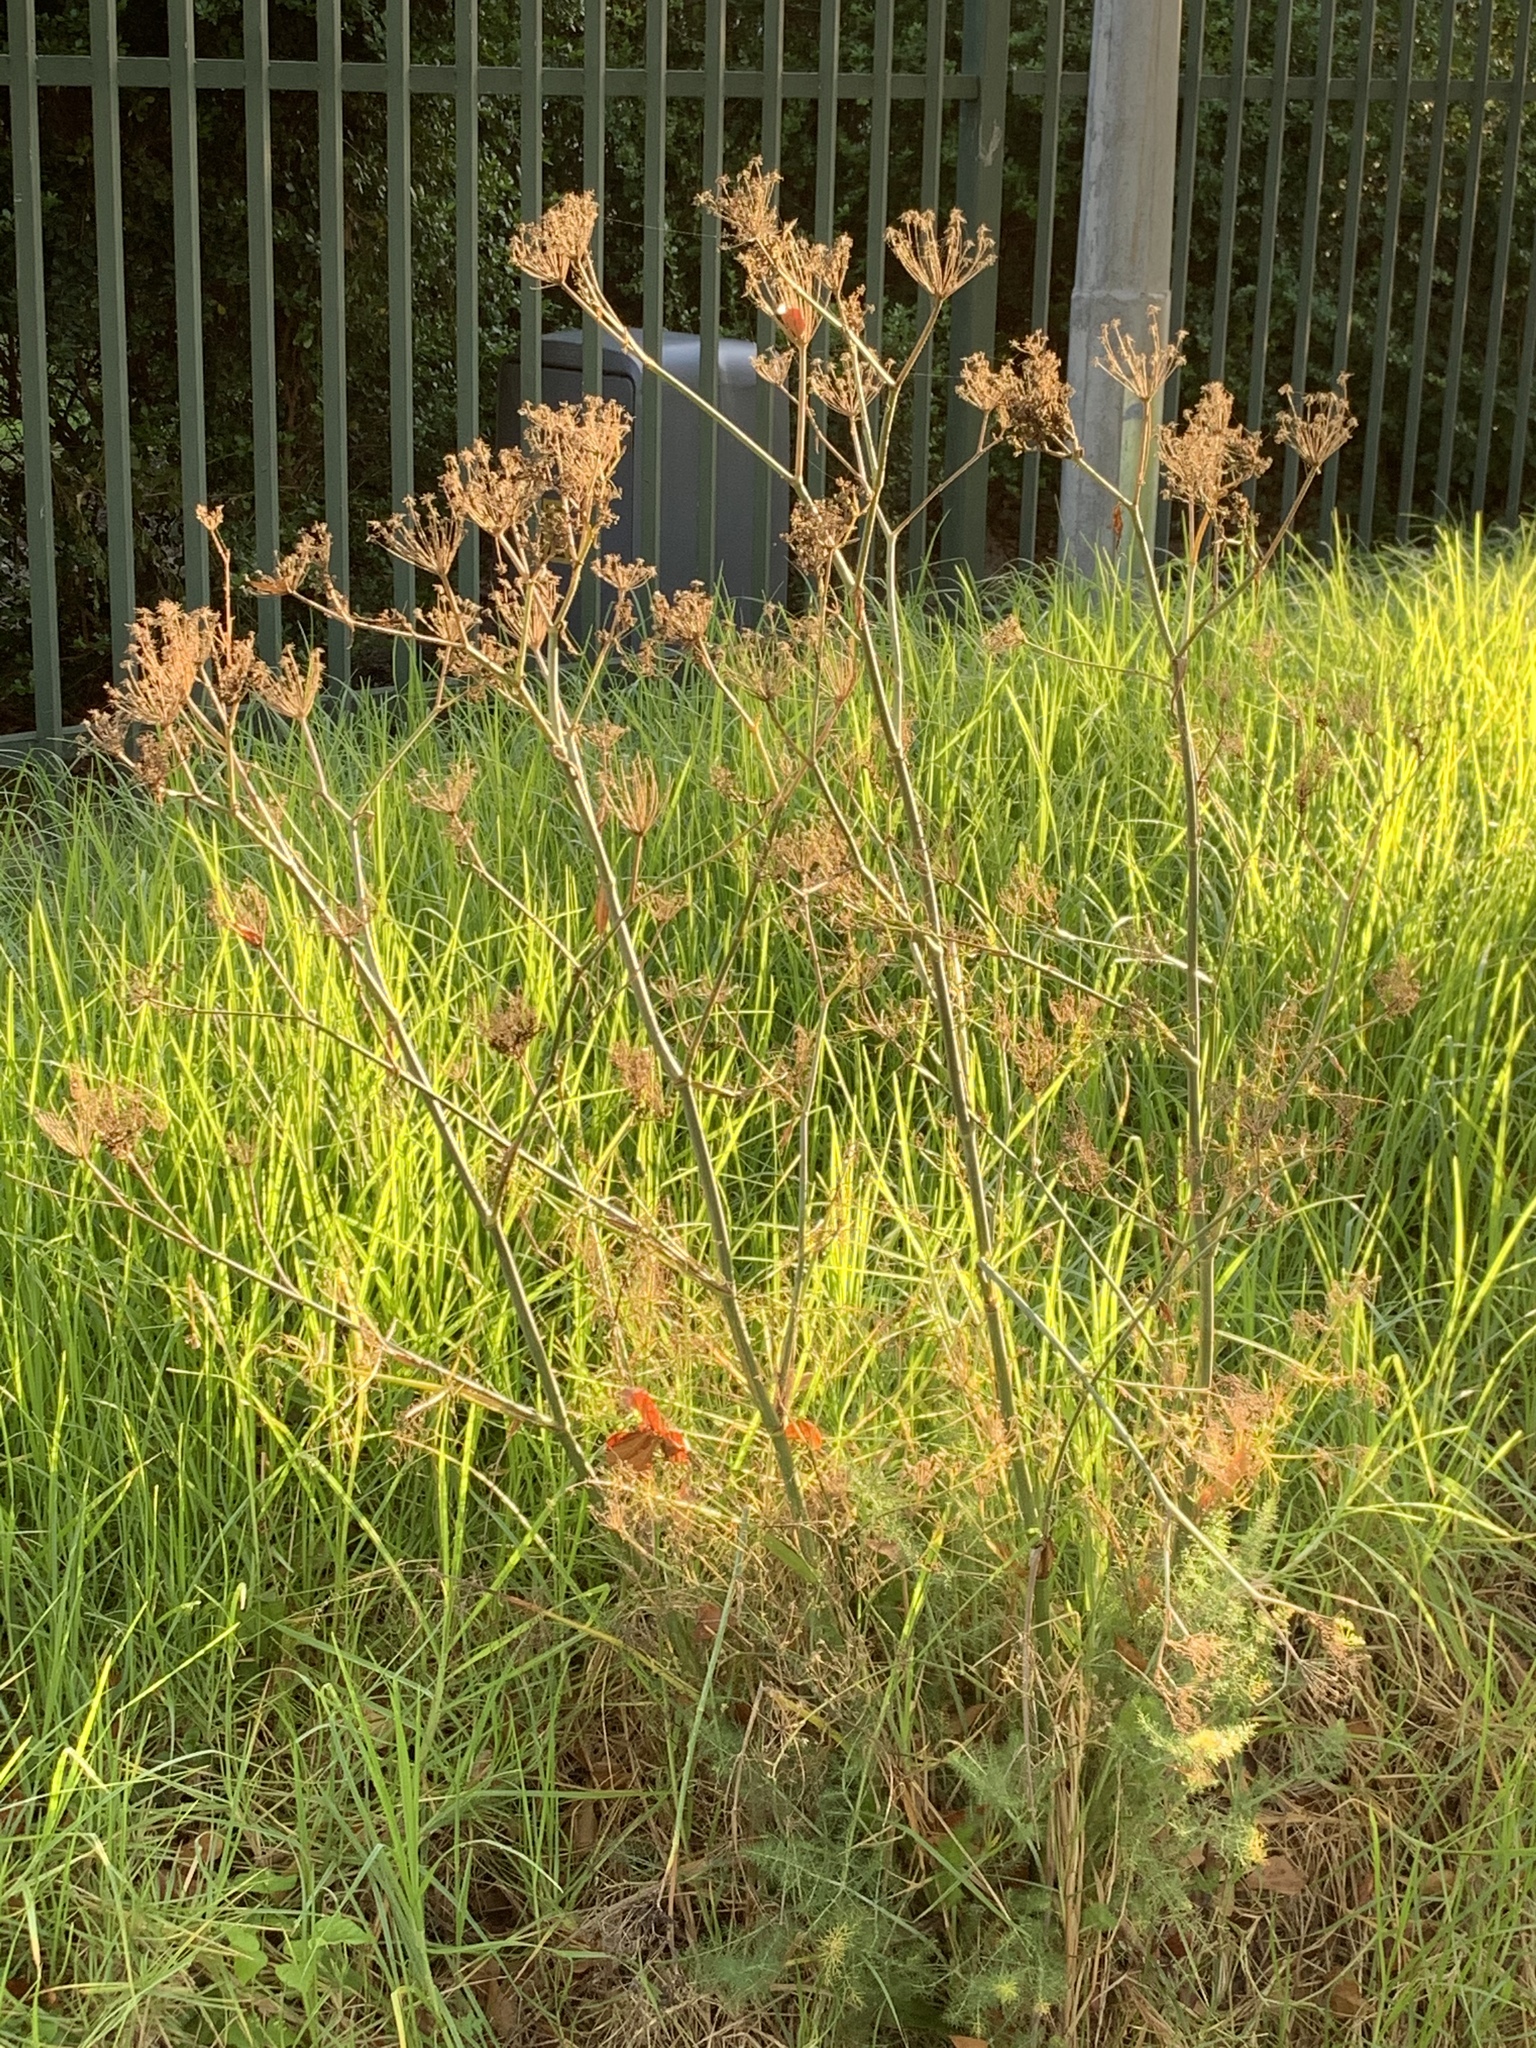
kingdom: Plantae
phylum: Tracheophyta
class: Magnoliopsida
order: Apiales
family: Apiaceae
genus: Foeniculum
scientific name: Foeniculum vulgare
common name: Fennel
